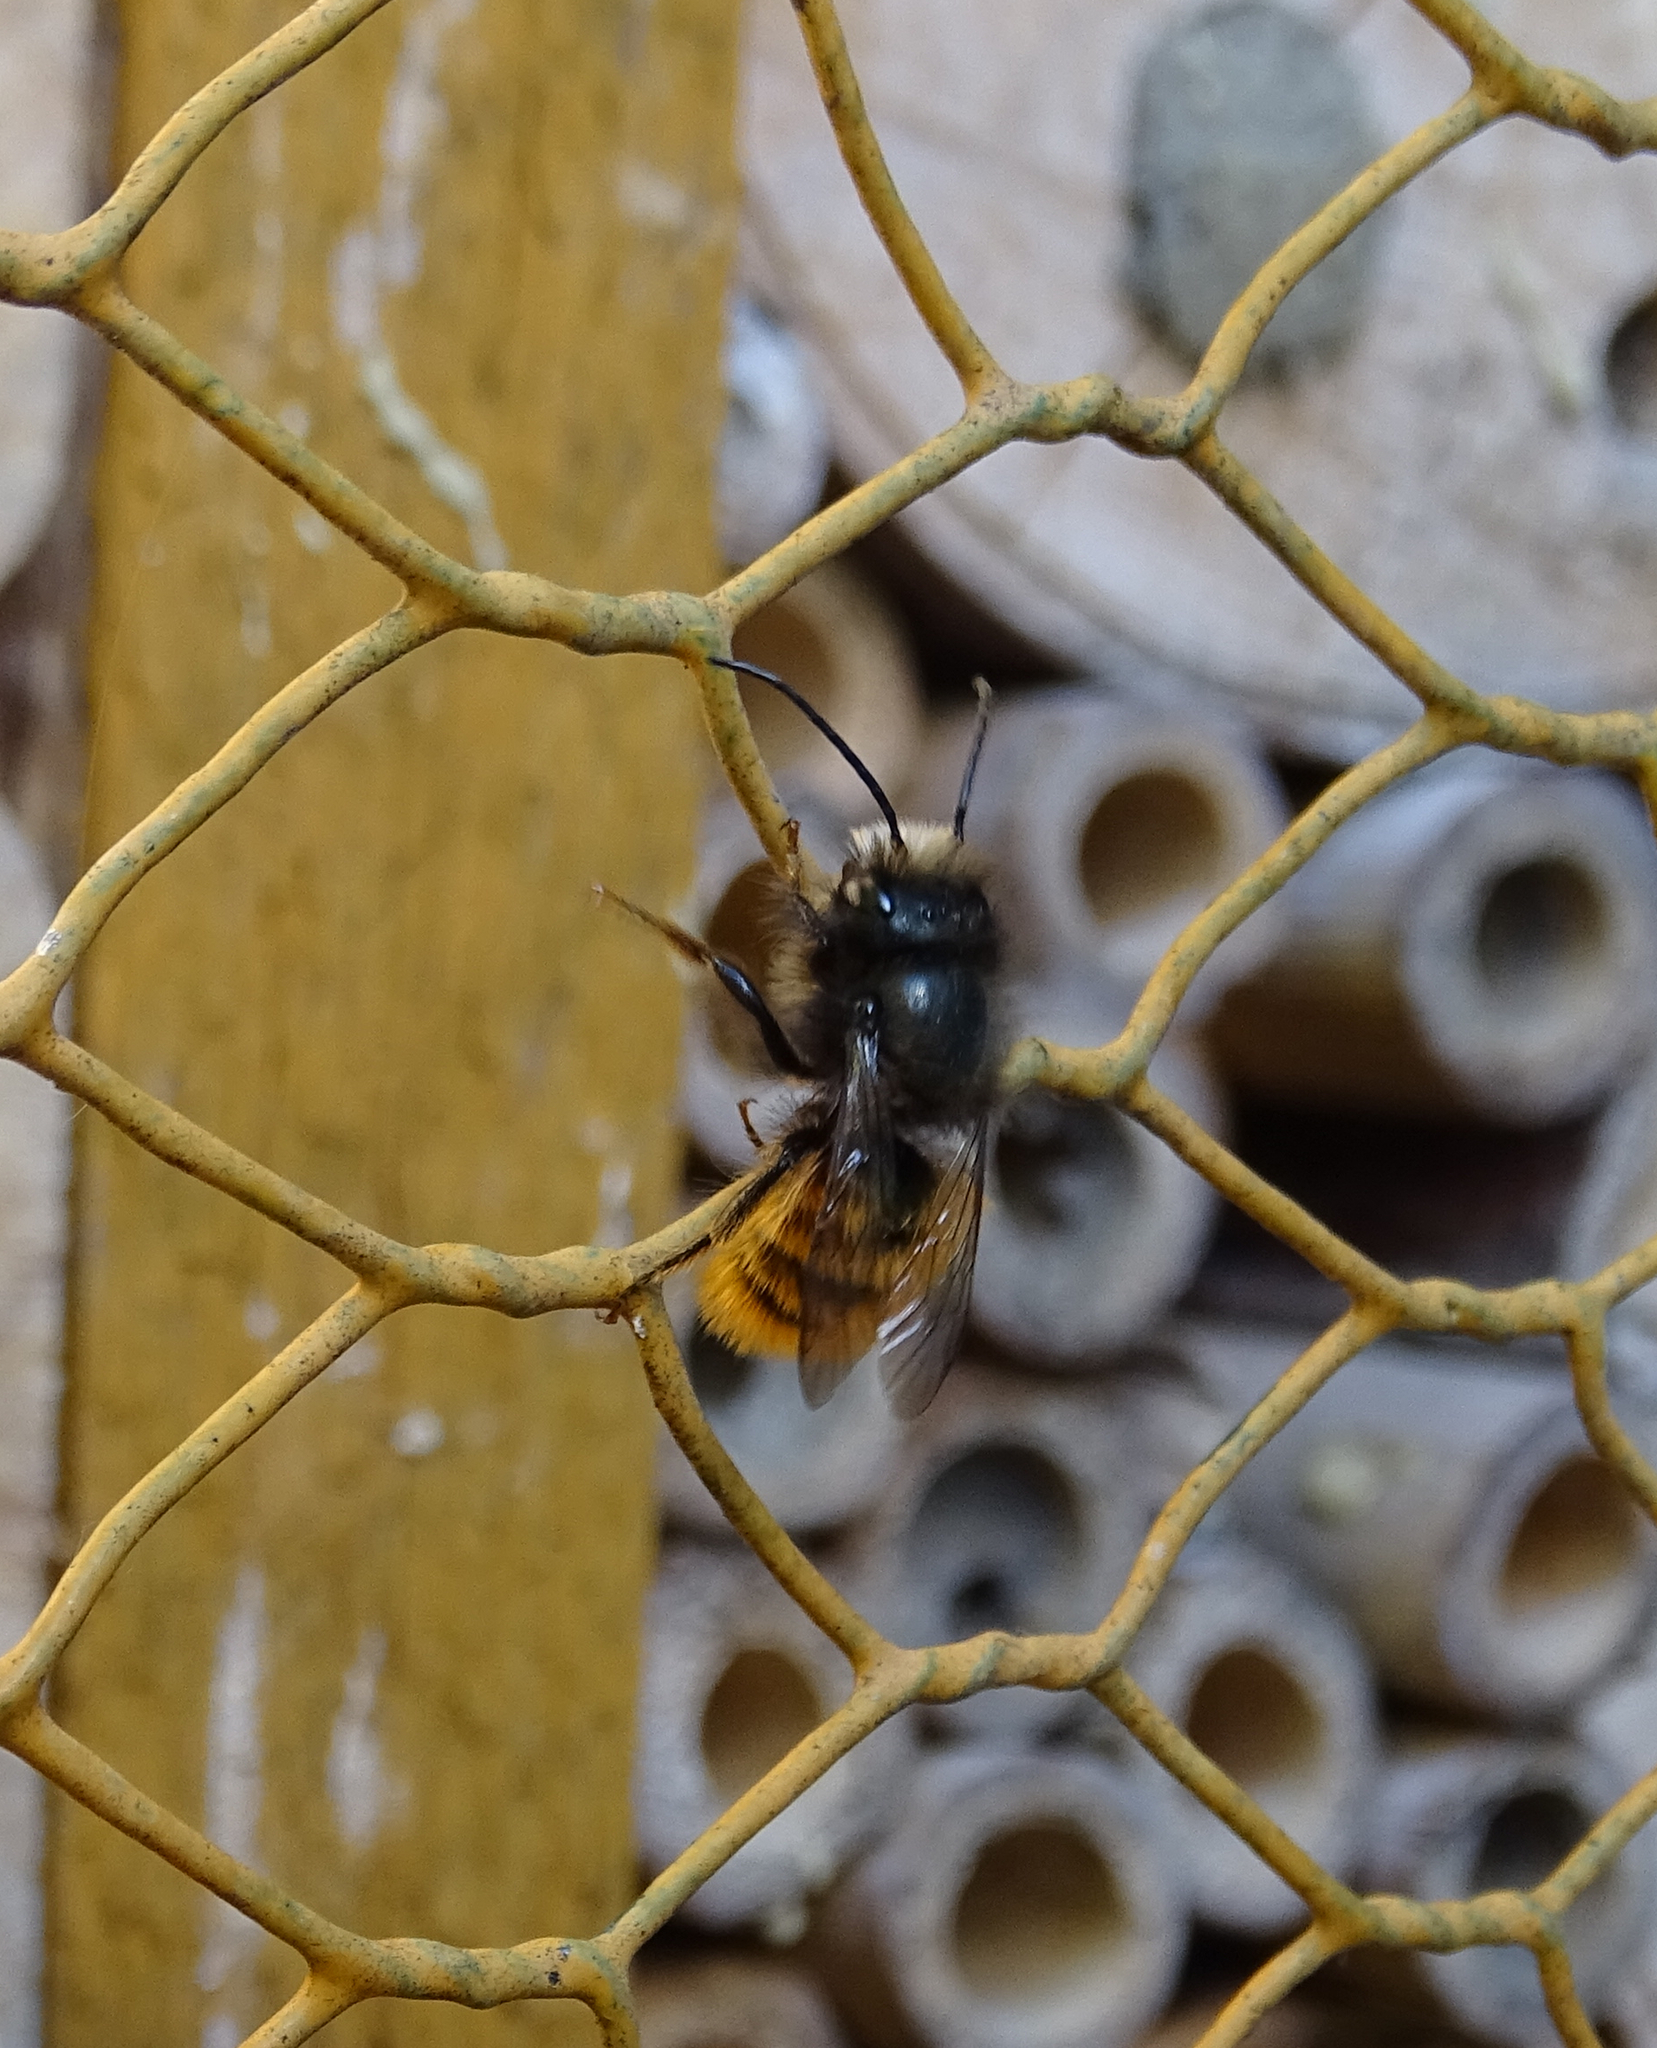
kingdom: Animalia
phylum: Arthropoda
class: Insecta
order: Hymenoptera
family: Megachilidae
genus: Osmia
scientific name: Osmia cornuta
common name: Mason bee
